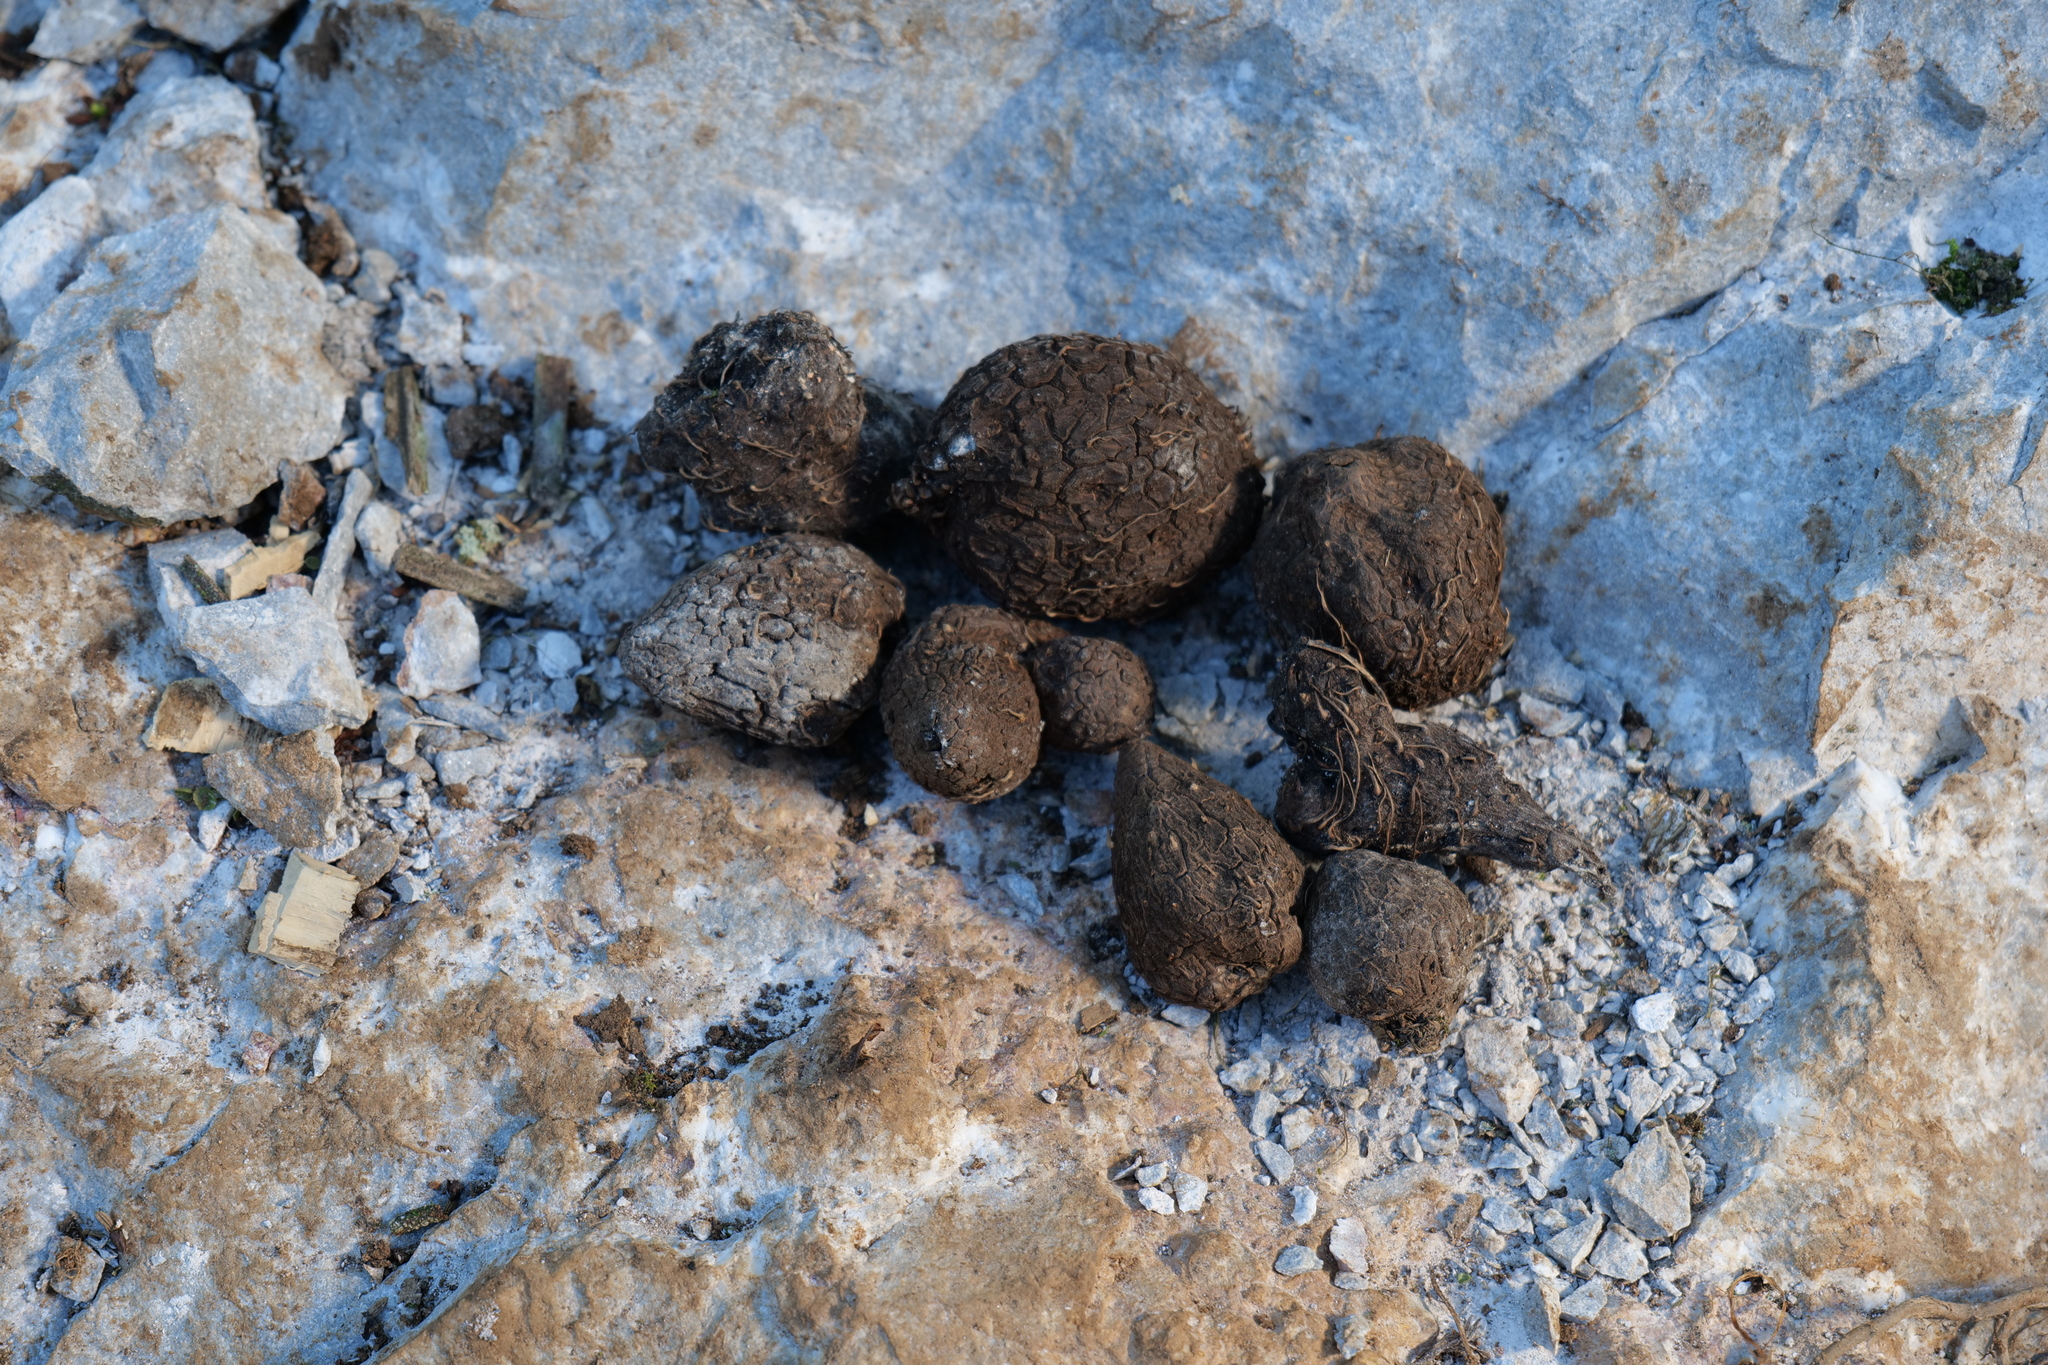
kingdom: Plantae
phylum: Tracheophyta
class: Liliopsida
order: Dioscoreales
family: Dioscoreaceae
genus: Dioscorea
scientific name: Dioscorea alata
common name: Water yam
